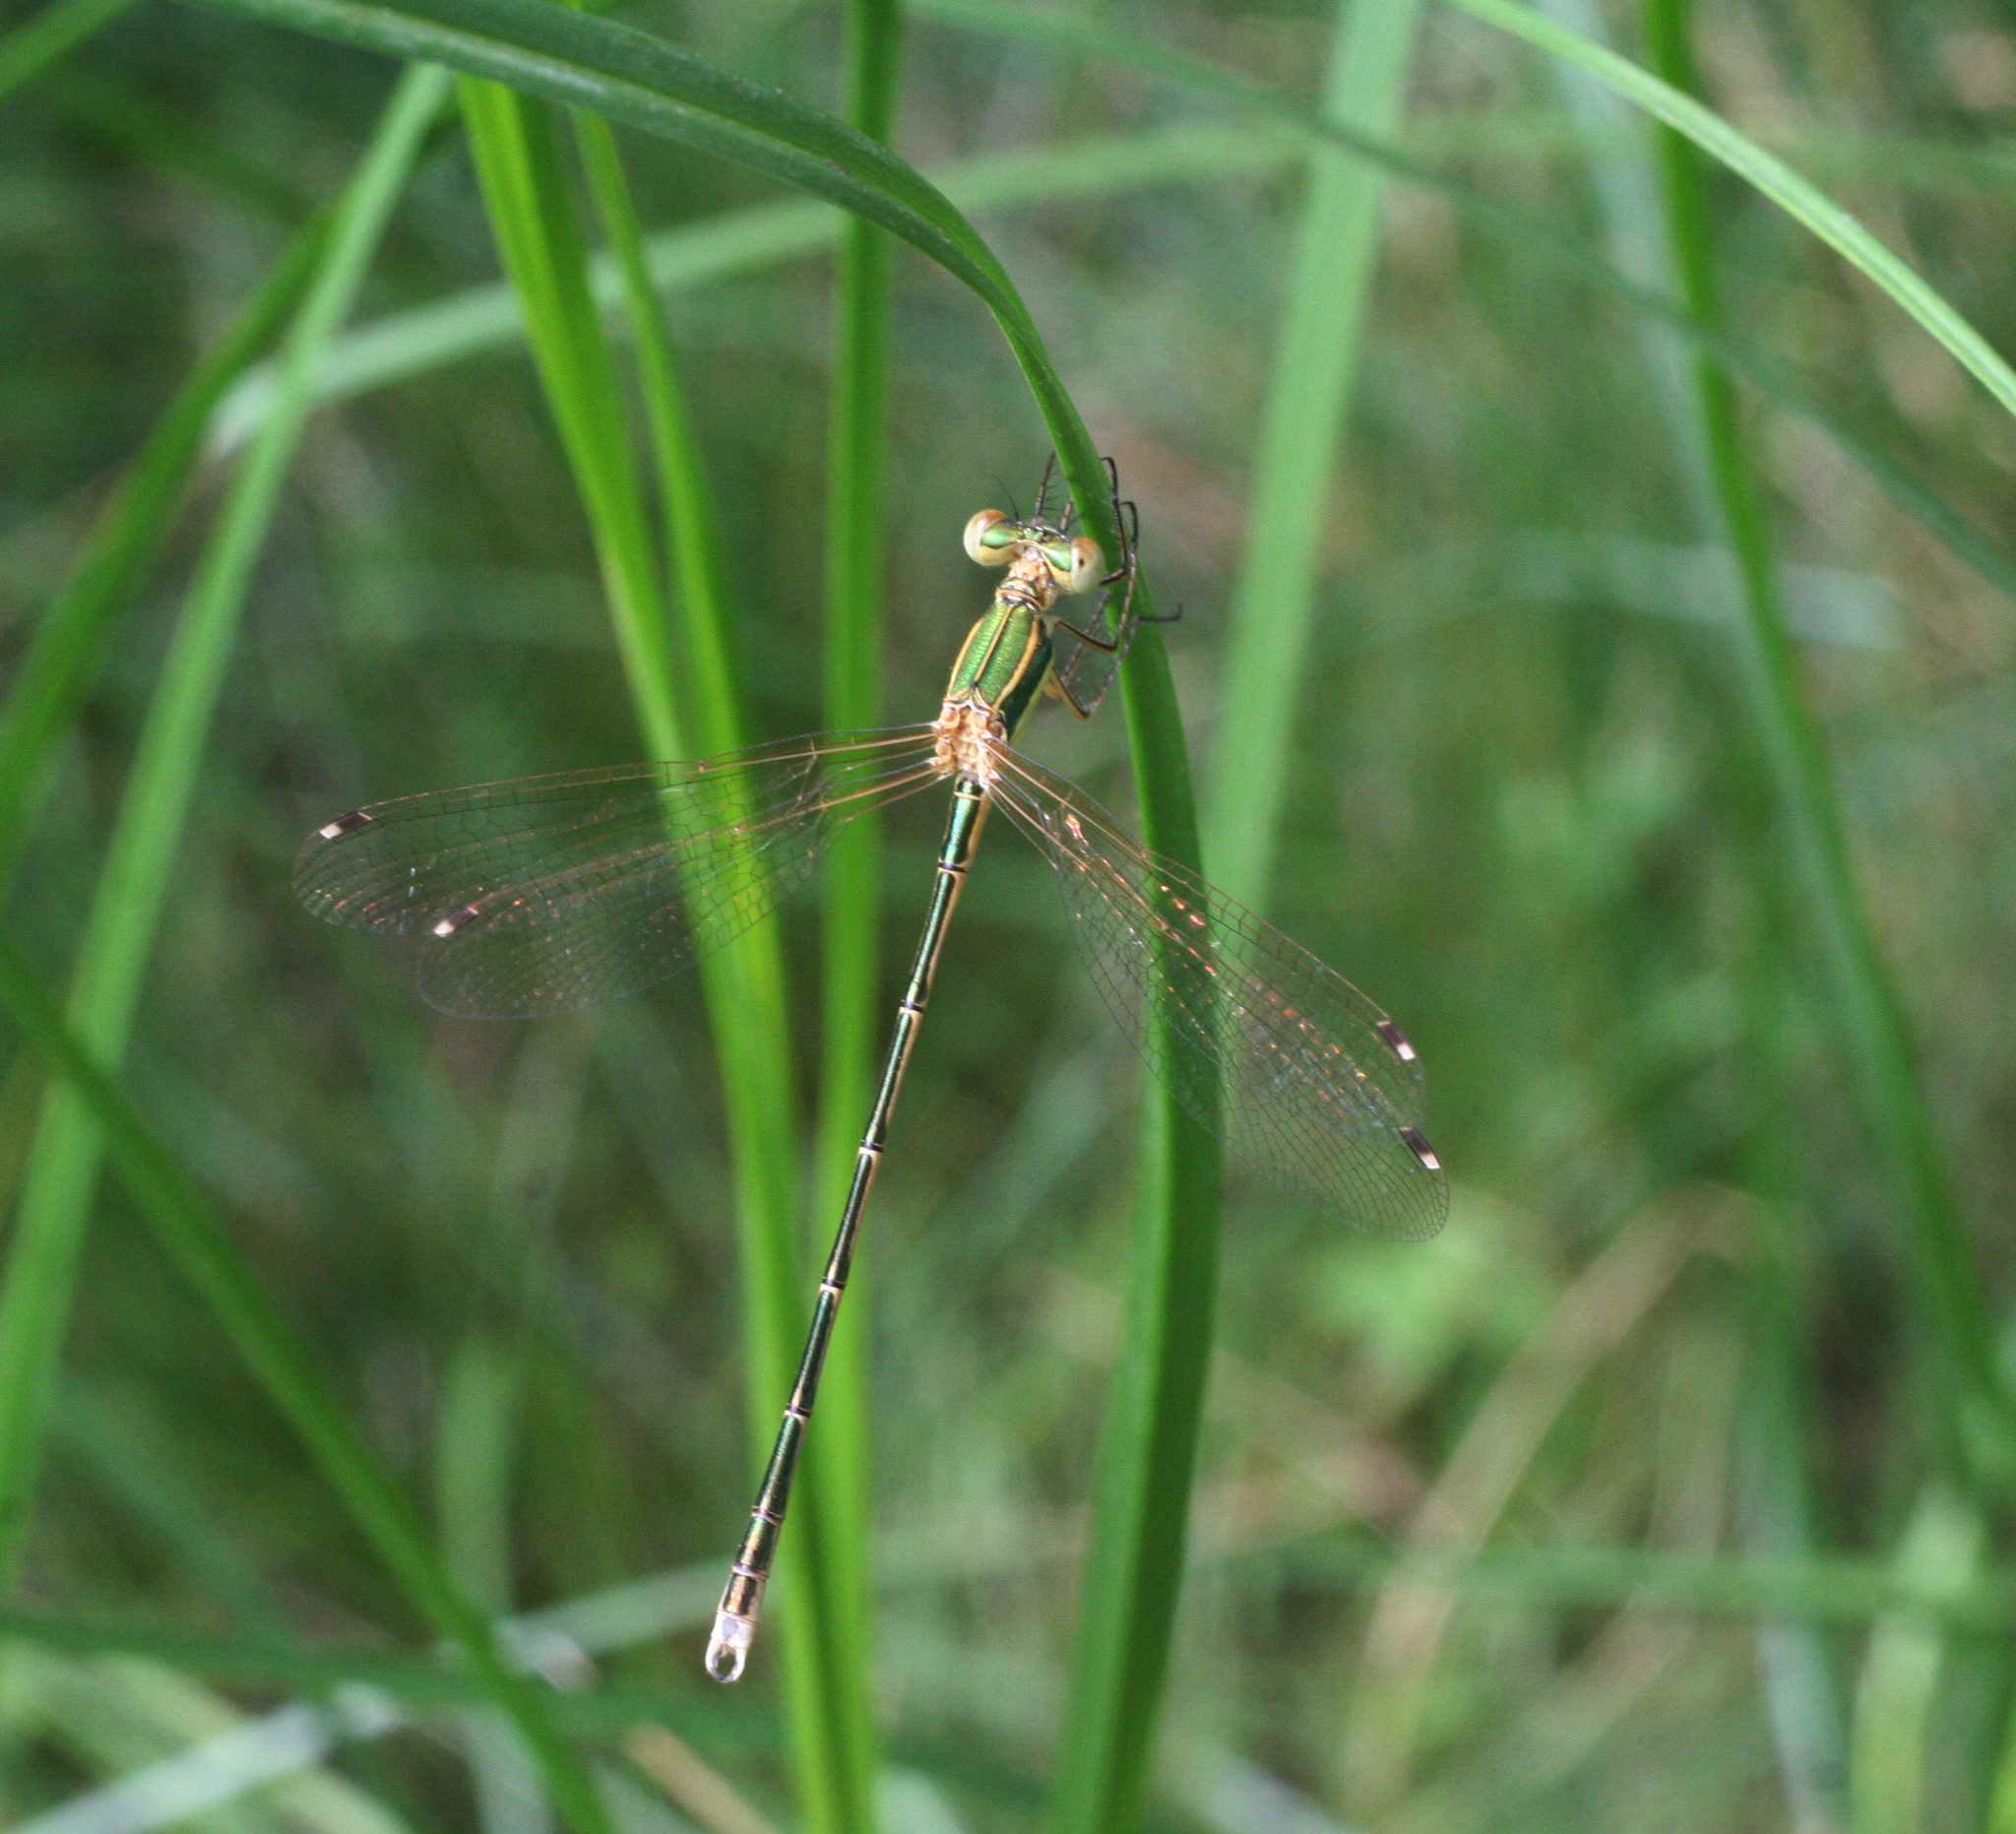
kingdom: Animalia
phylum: Arthropoda
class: Insecta
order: Odonata
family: Lestidae
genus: Lestes
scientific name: Lestes barbarus
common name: Migrant spreadwing
